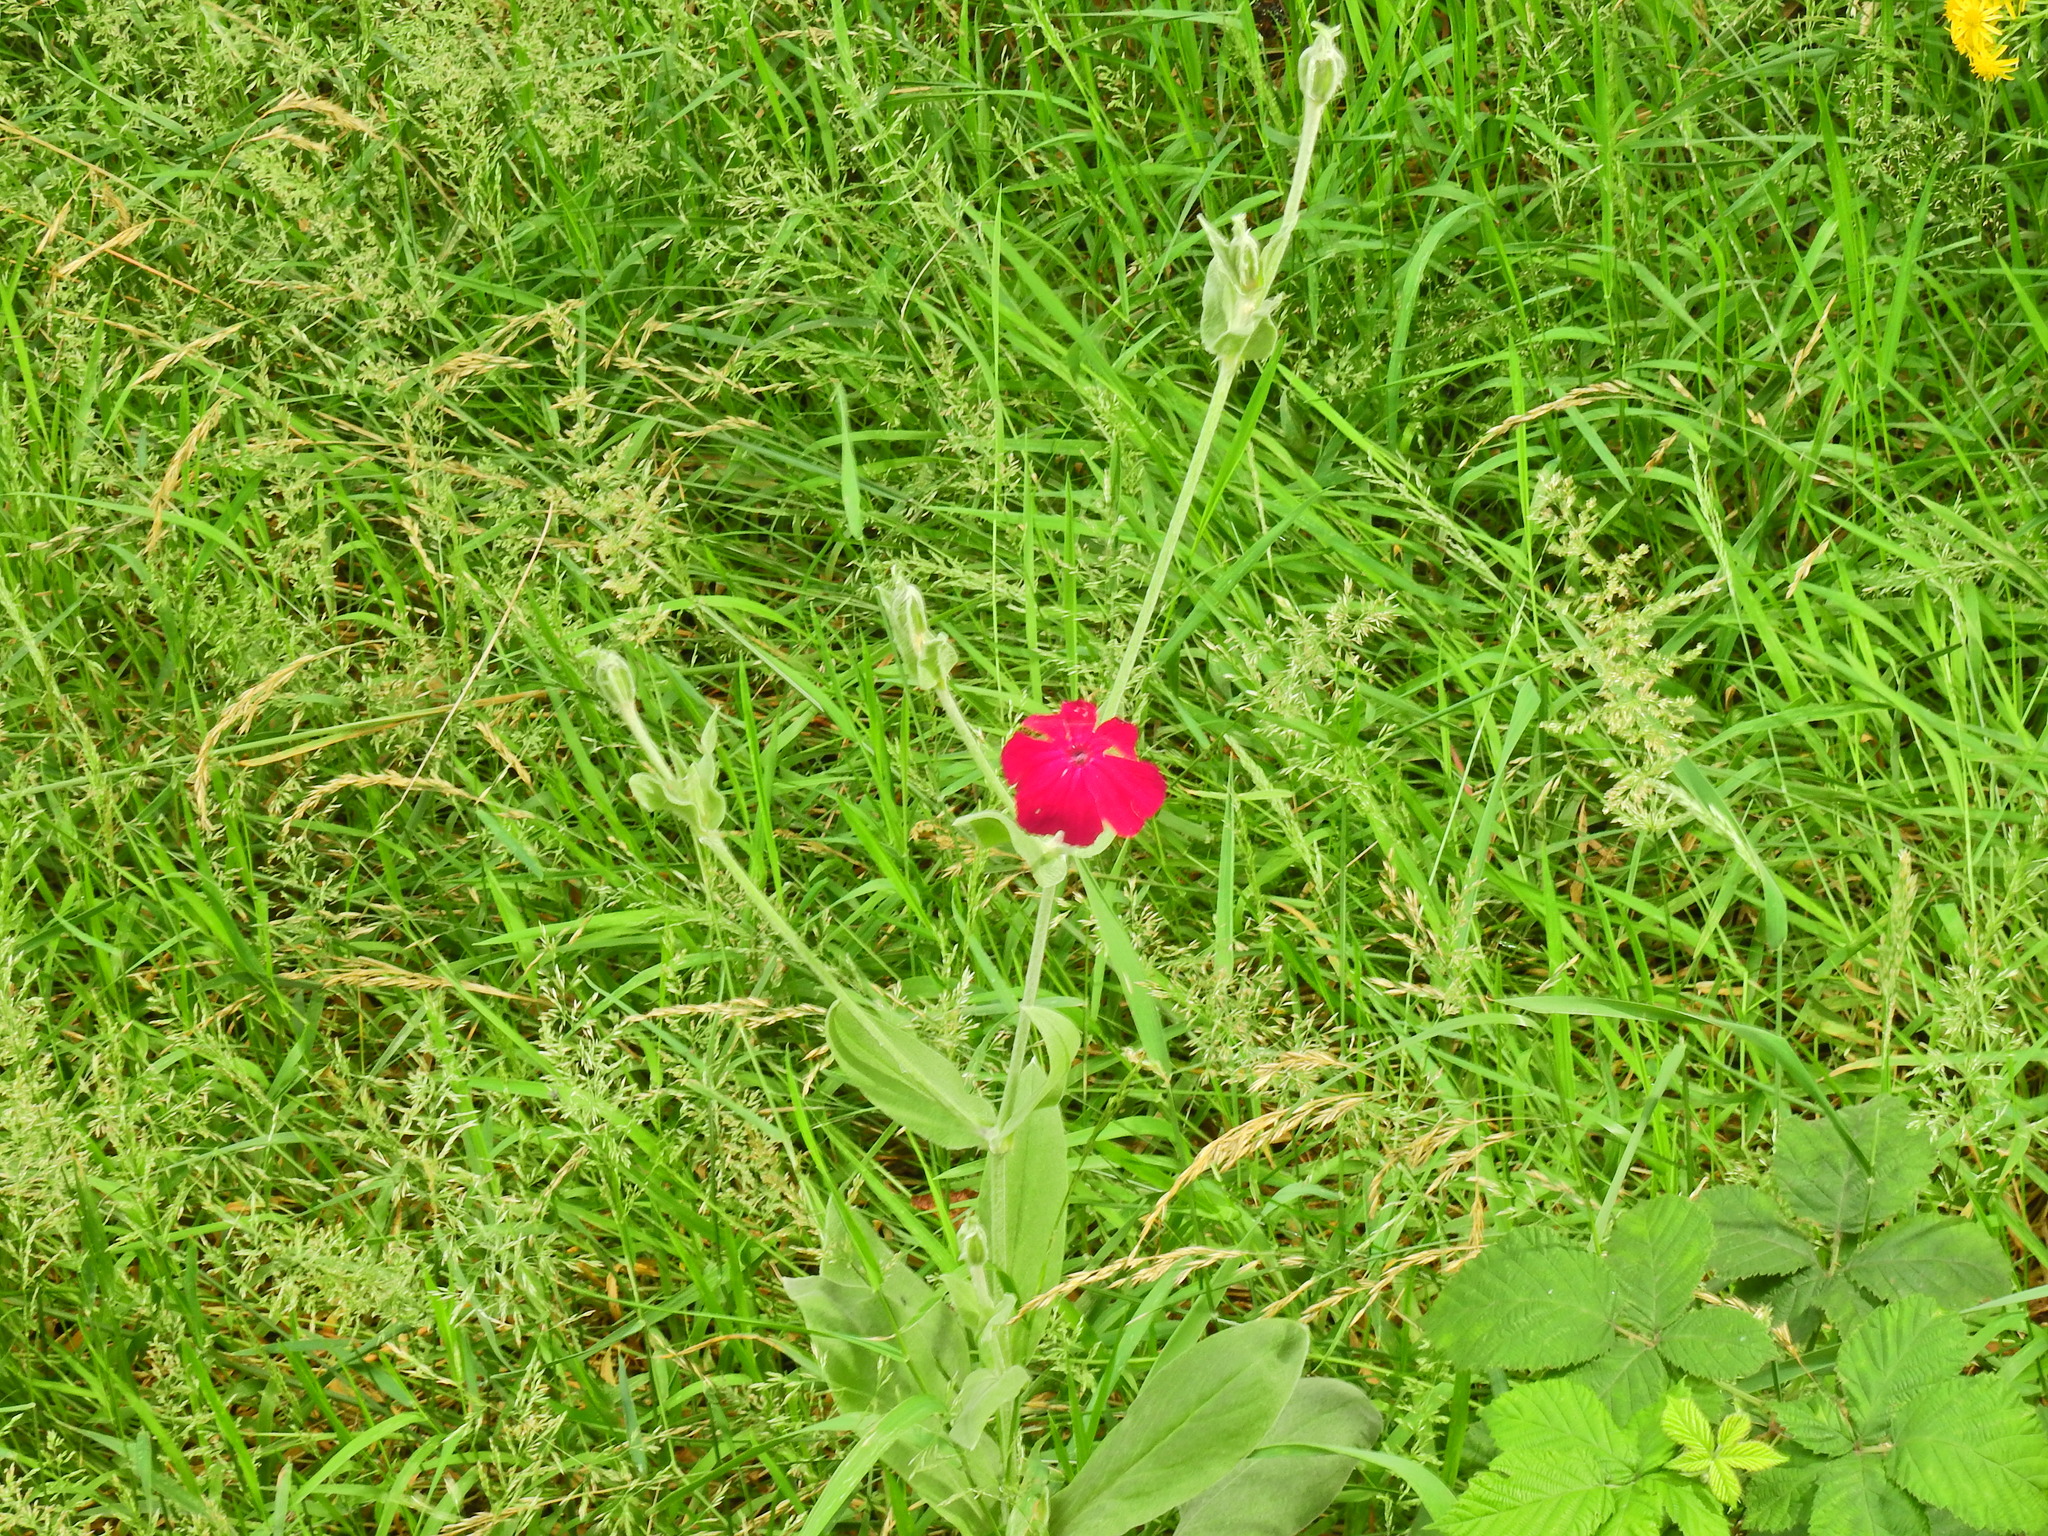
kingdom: Plantae
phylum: Tracheophyta
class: Magnoliopsida
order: Caryophyllales
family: Caryophyllaceae
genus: Silene
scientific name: Silene coronaria
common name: Rose campion
